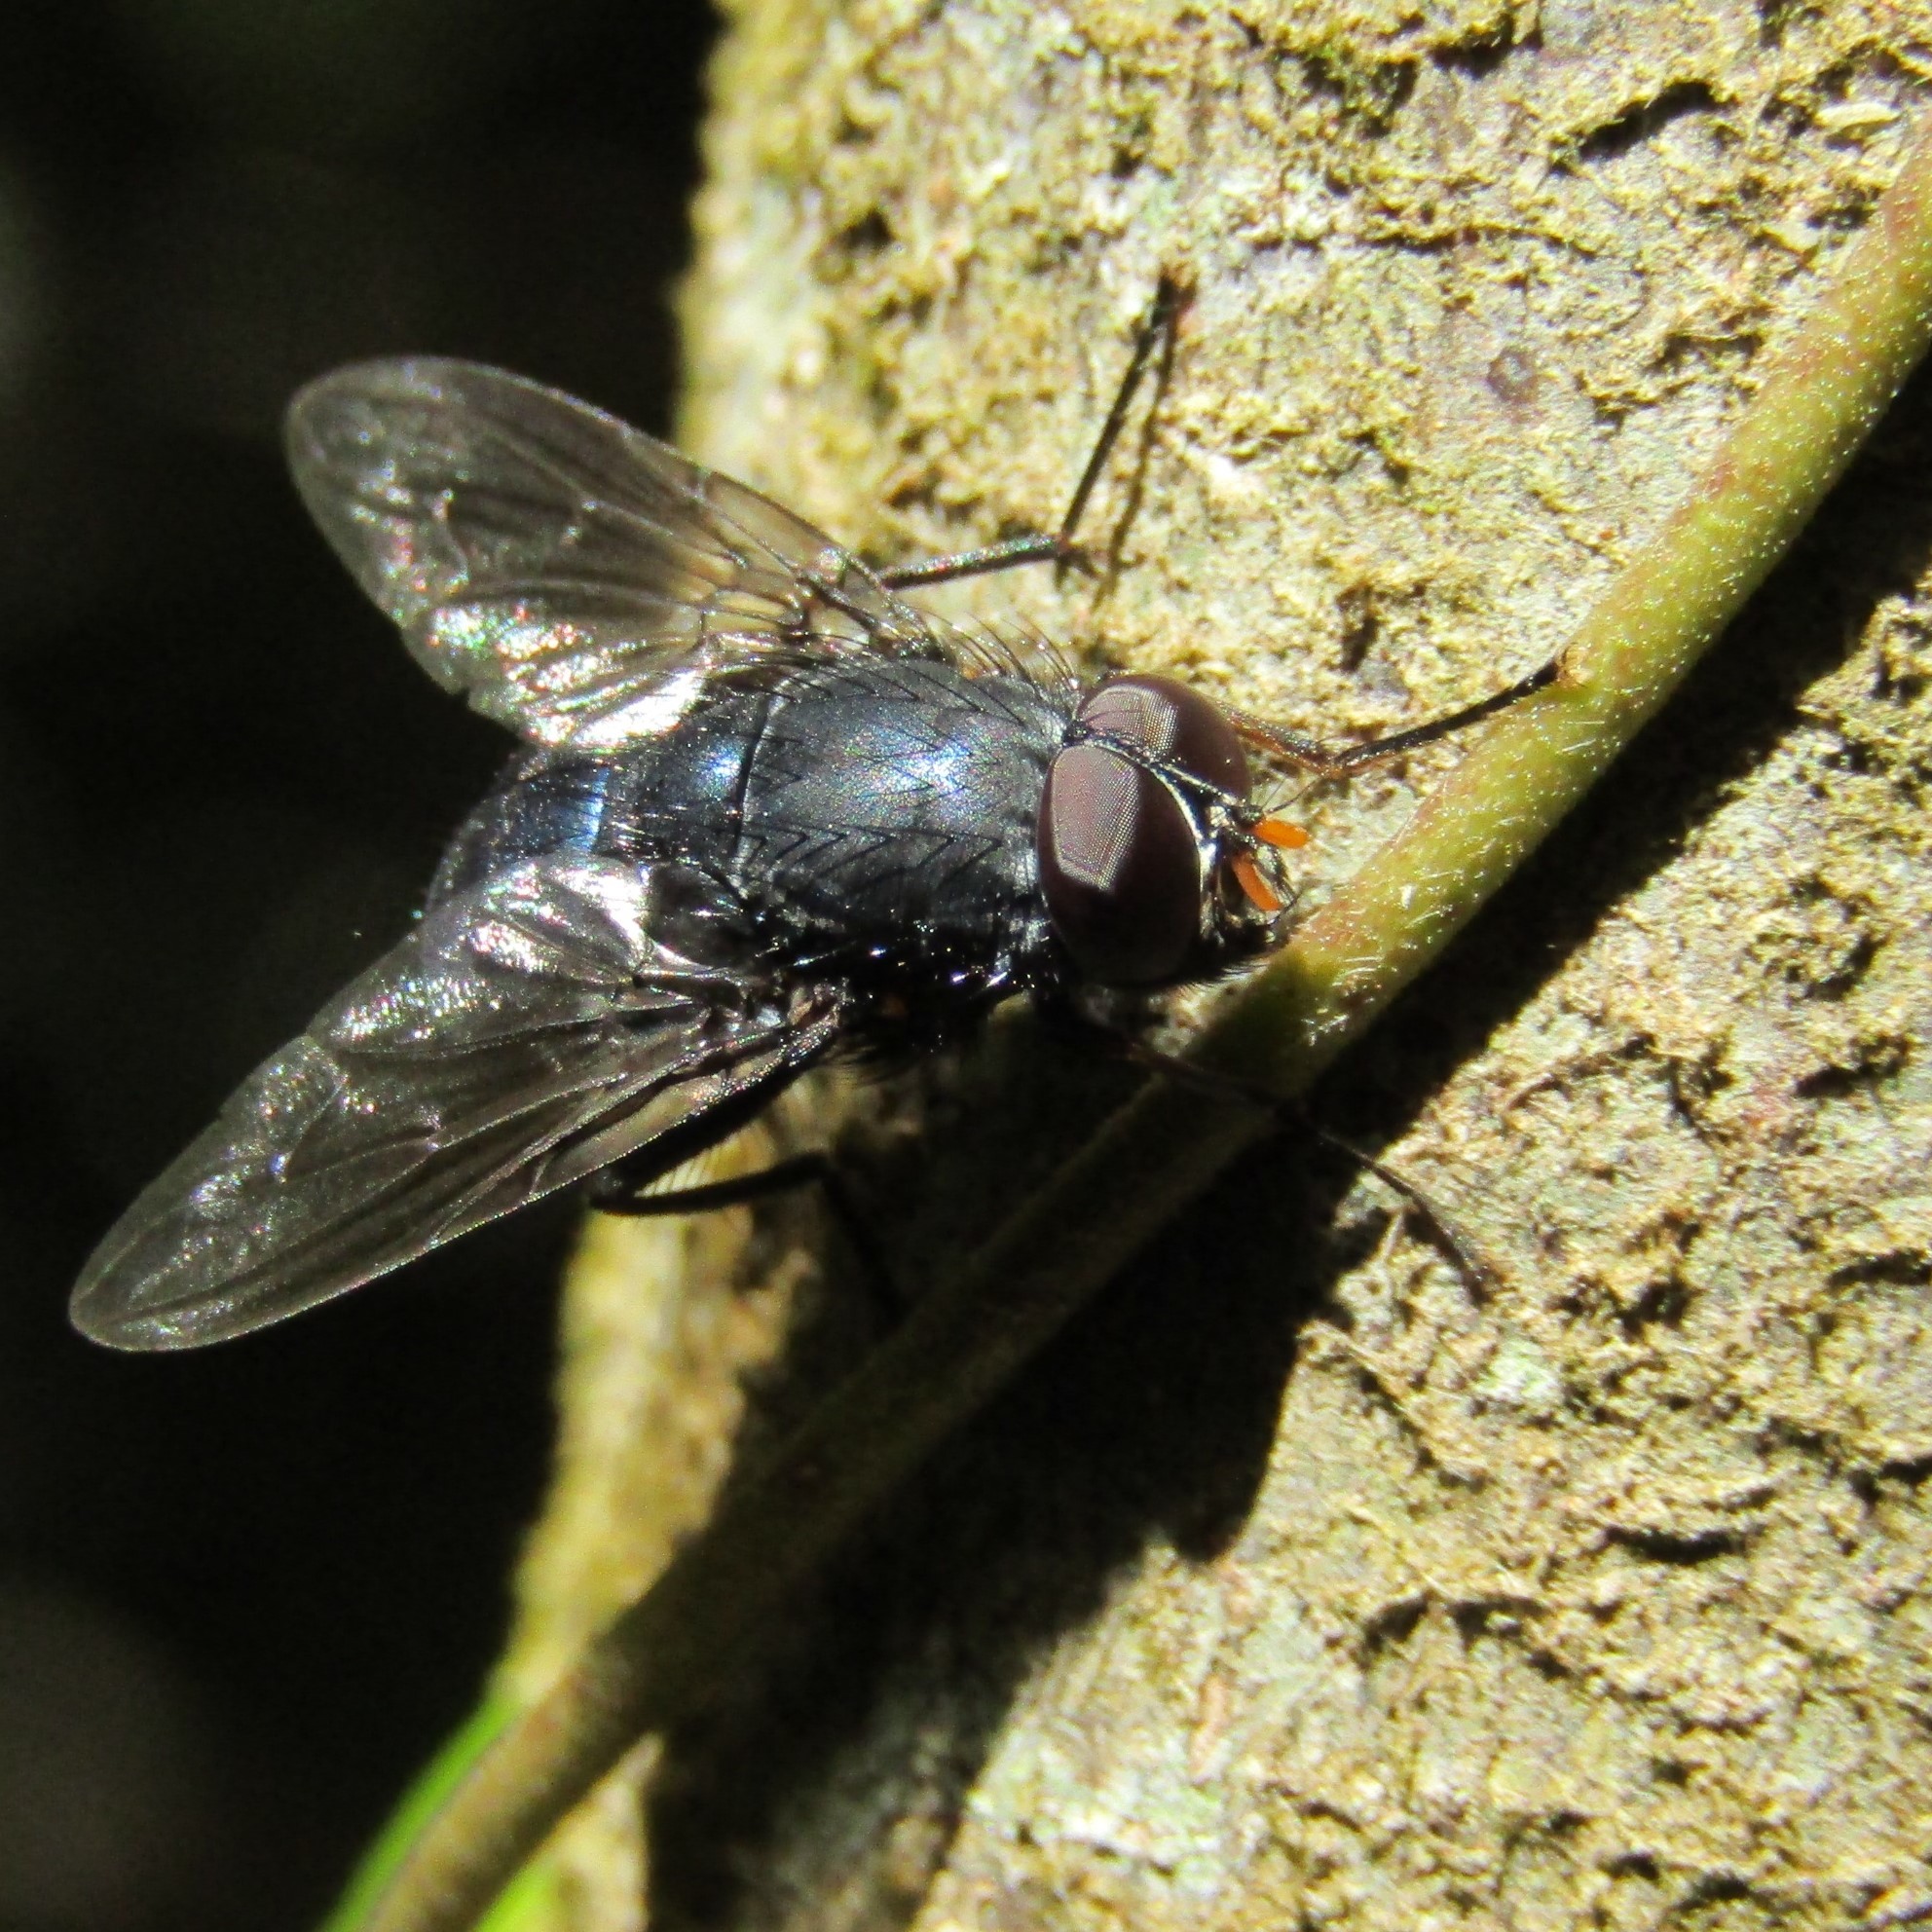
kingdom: Animalia
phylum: Arthropoda
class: Insecta
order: Diptera
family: Muscidae
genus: Calliphoroides
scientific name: Calliphoroides antennatis
